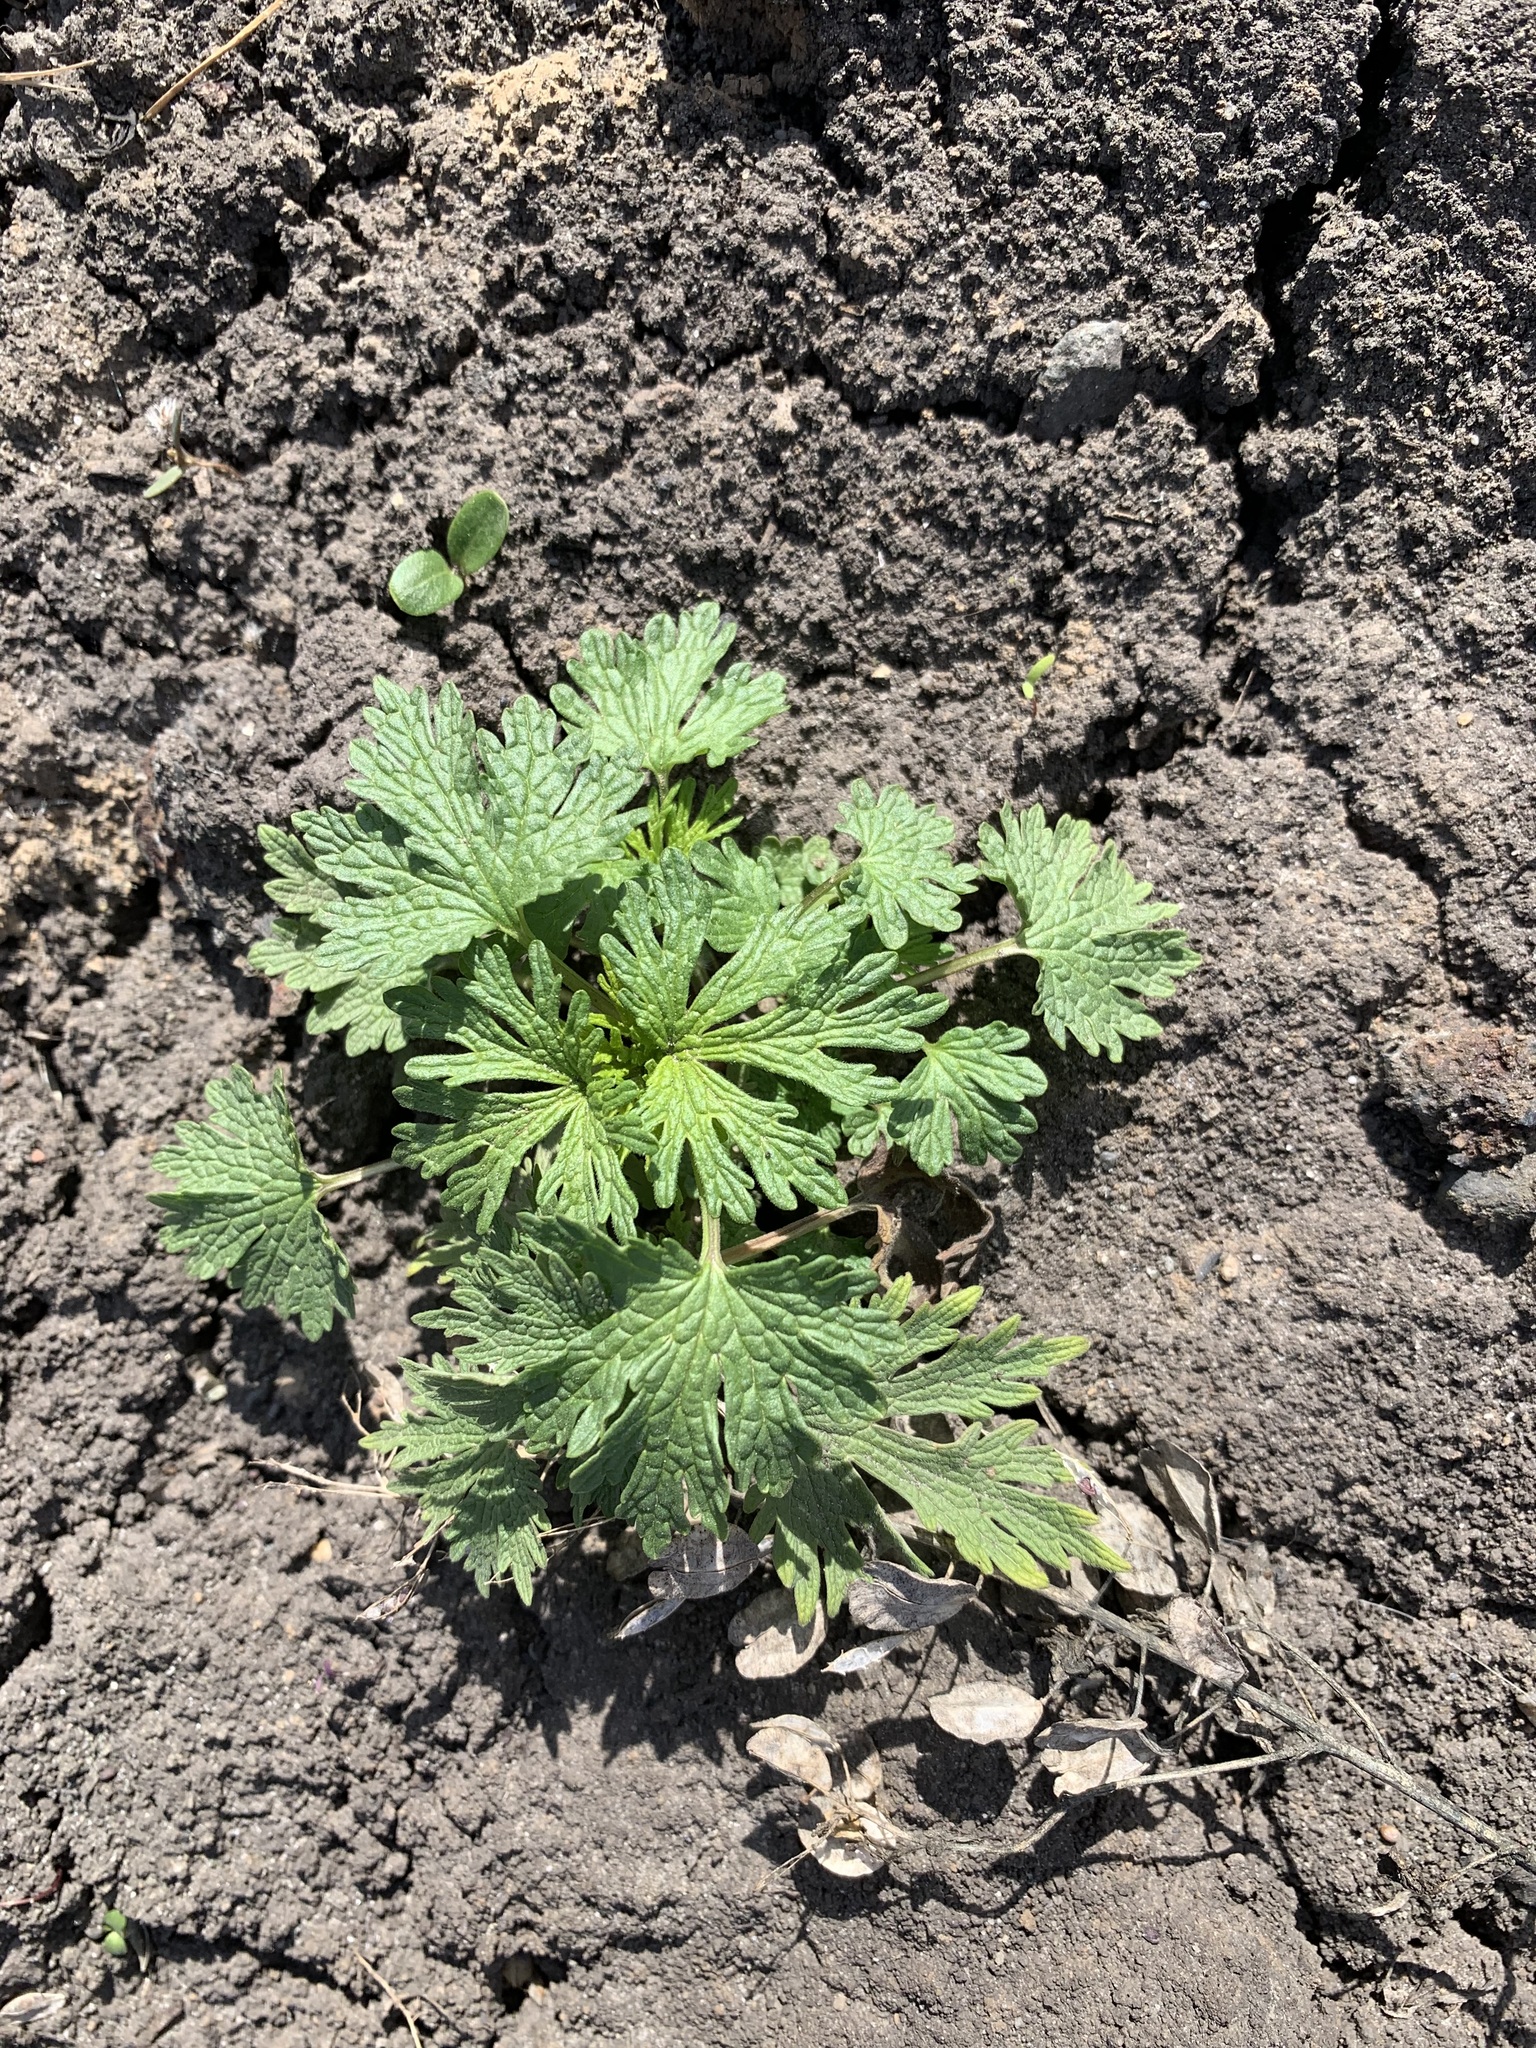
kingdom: Plantae
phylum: Tracheophyta
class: Magnoliopsida
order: Lamiales
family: Lamiaceae
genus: Leonurus
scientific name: Leonurus quinquelobatus
